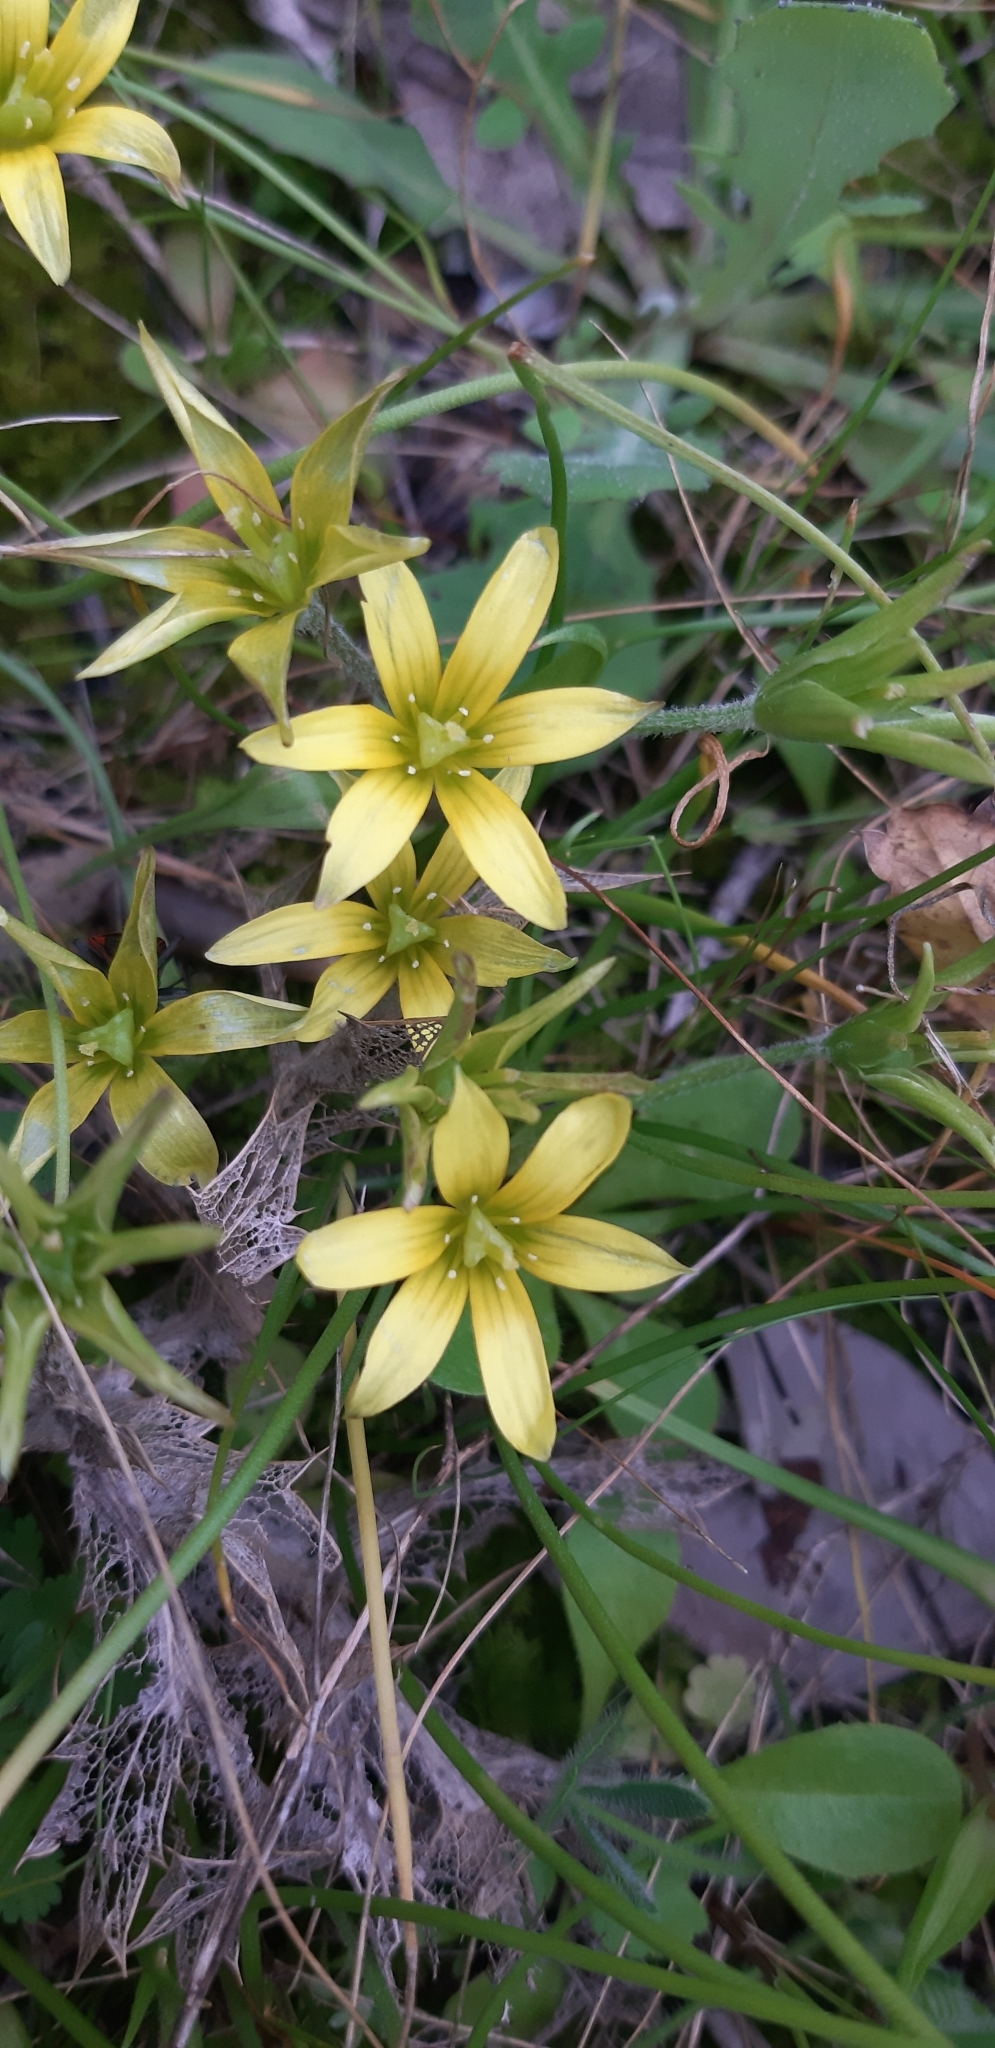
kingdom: Plantae
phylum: Tracheophyta
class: Liliopsida
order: Liliales
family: Liliaceae
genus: Gagea
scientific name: Gagea peduncularis
